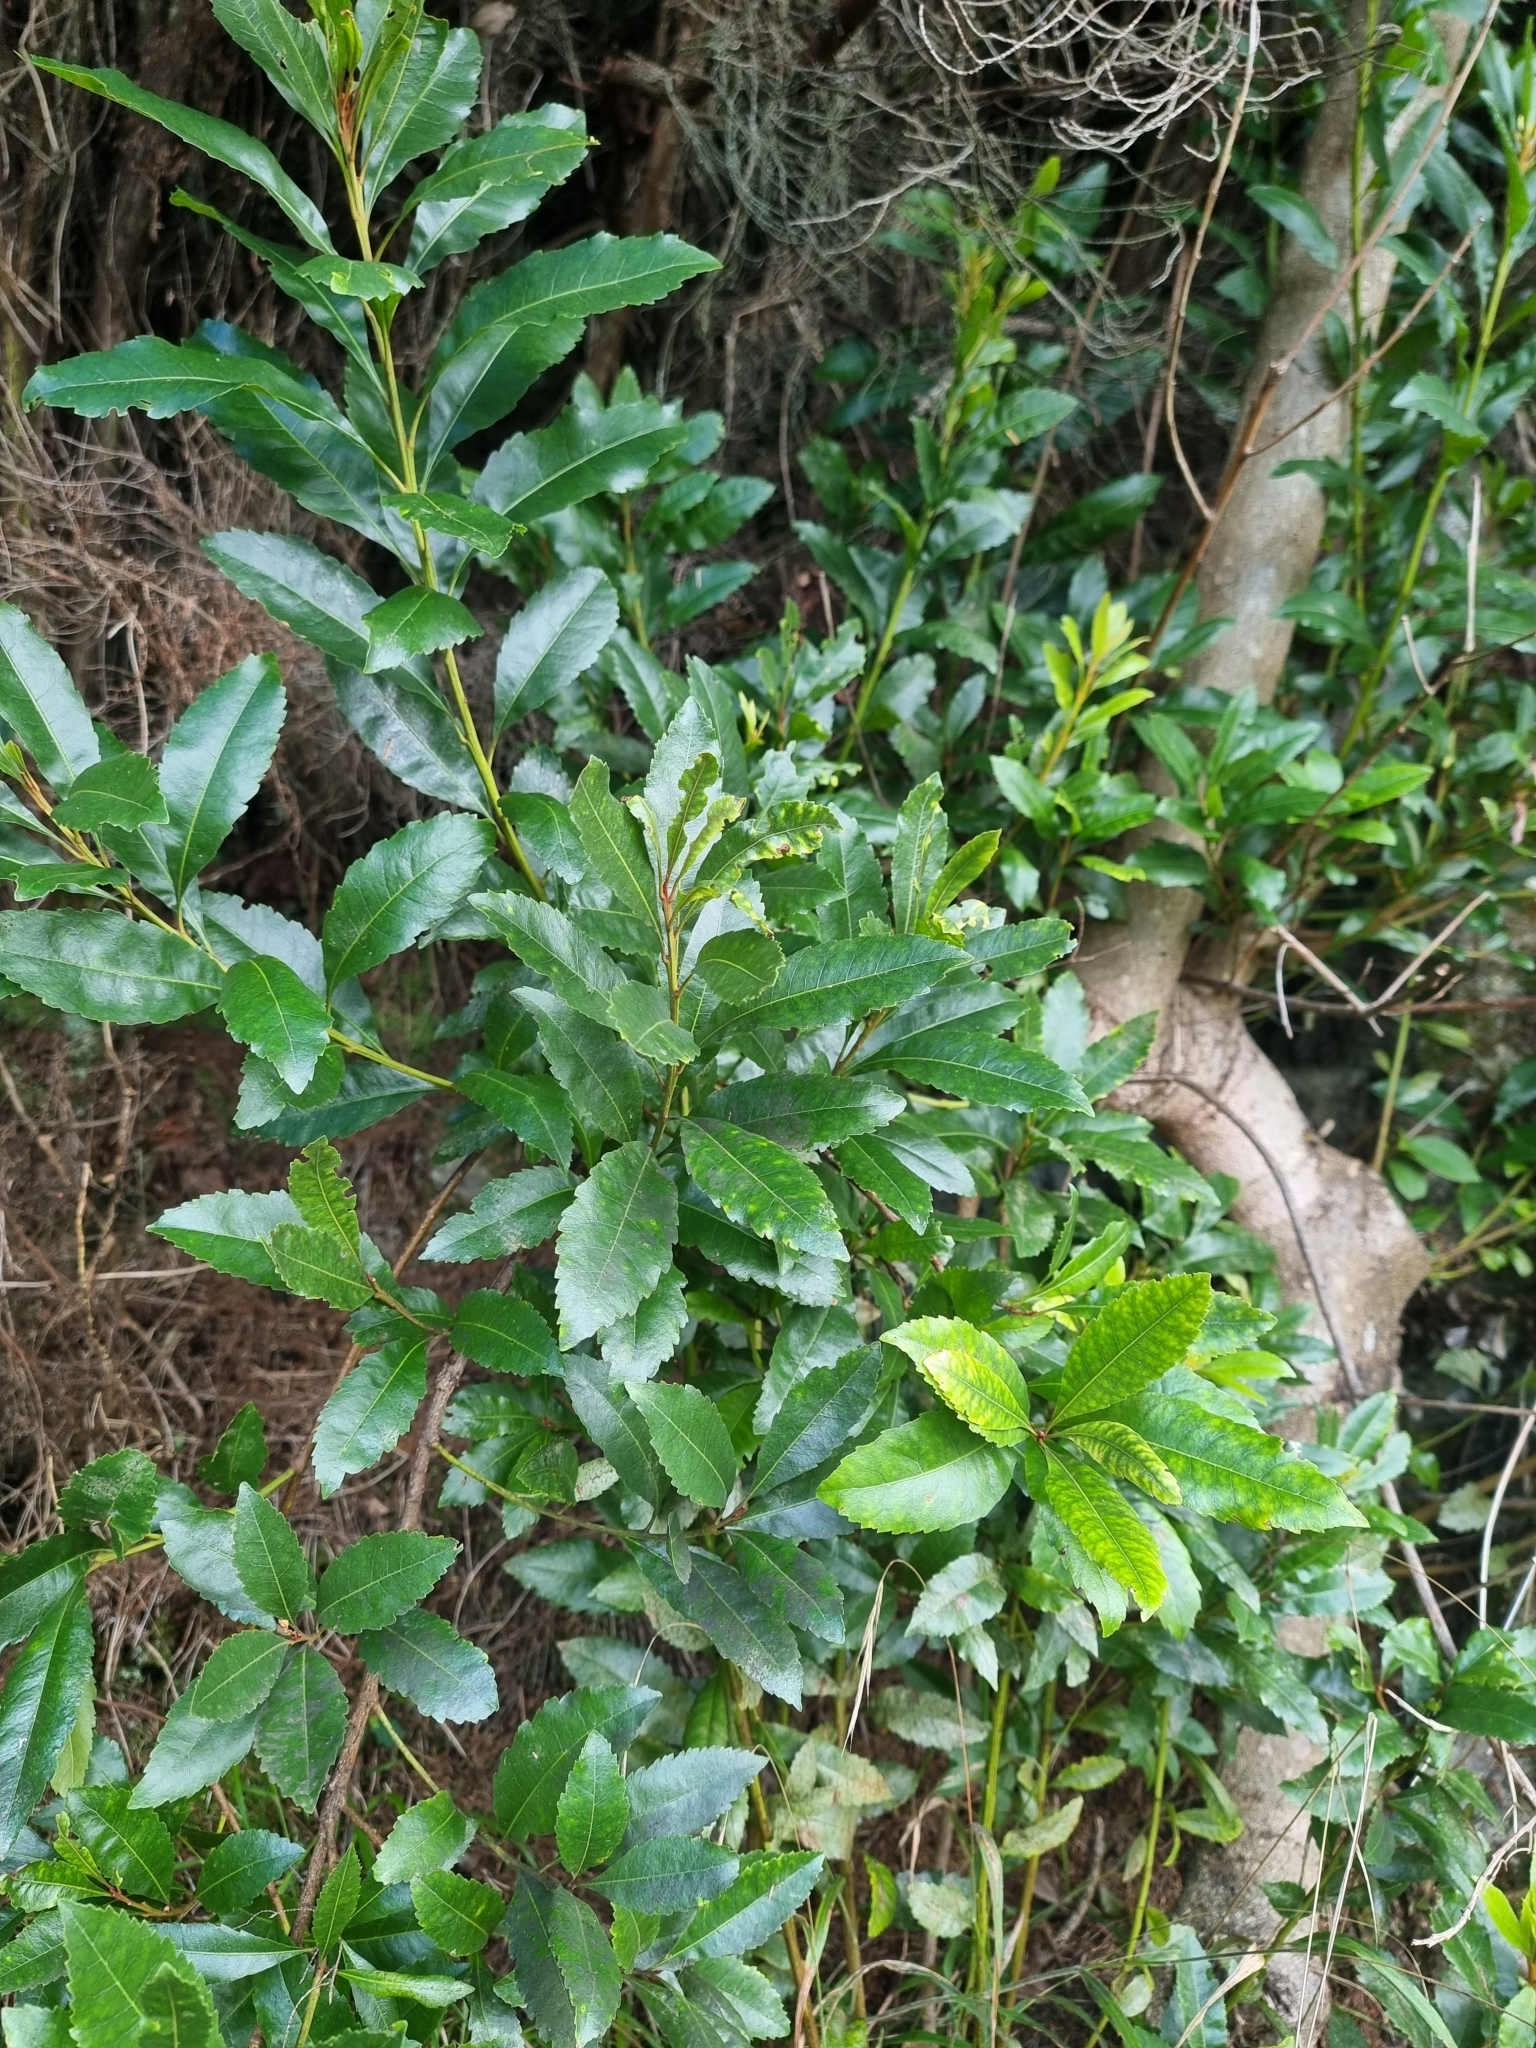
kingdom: Plantae
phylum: Tracheophyta
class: Magnoliopsida
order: Fagales
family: Myricaceae
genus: Morella
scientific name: Morella faya
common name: Firetree
